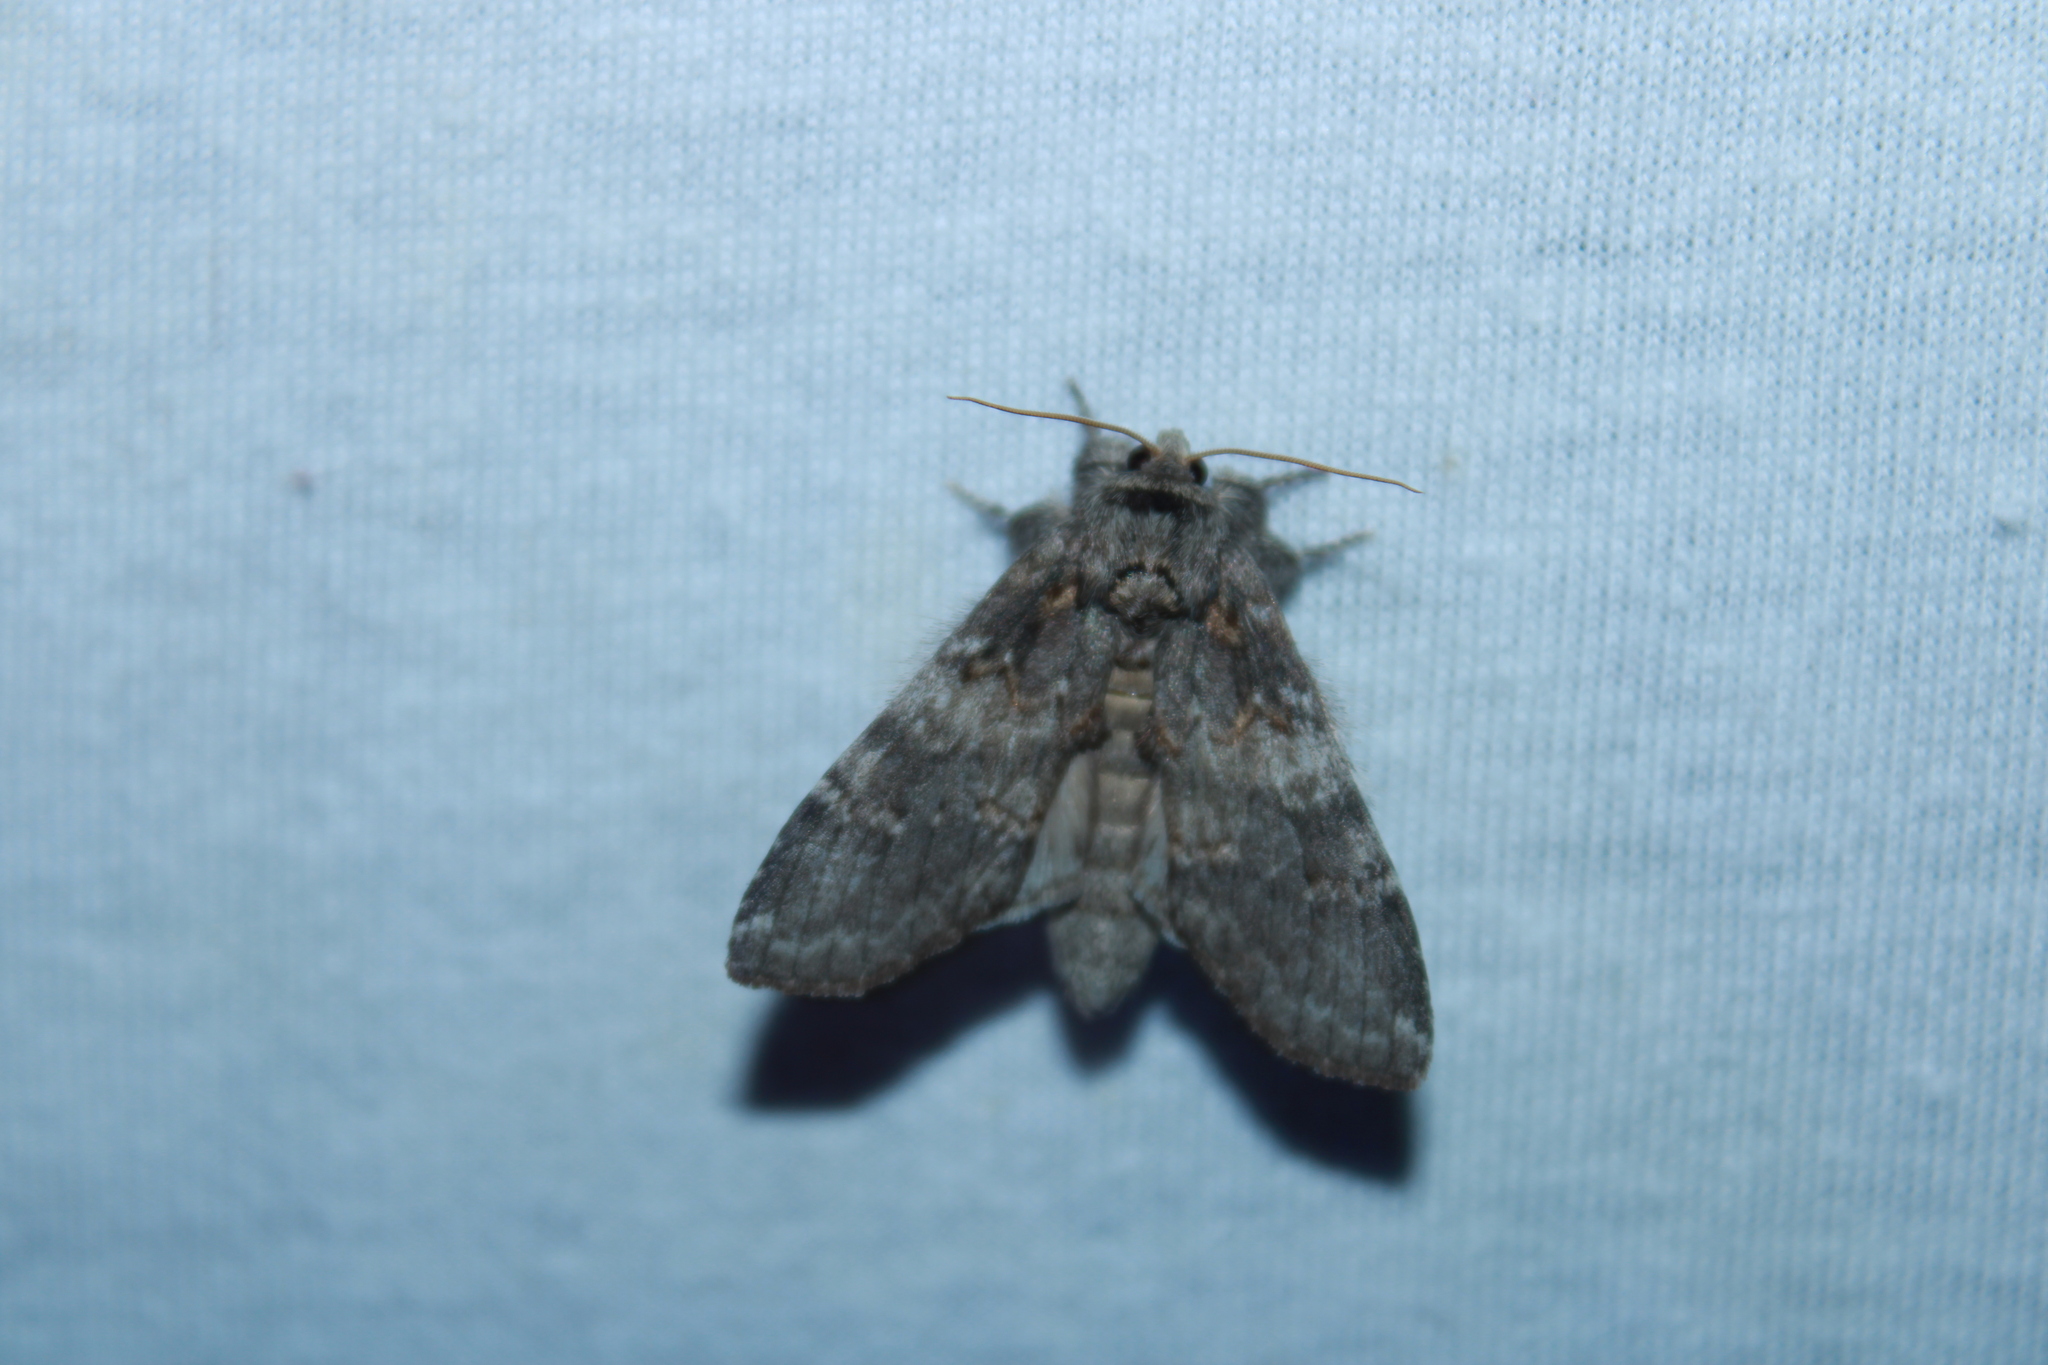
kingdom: Animalia
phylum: Arthropoda
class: Insecta
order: Lepidoptera
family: Notodontidae
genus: Peridea
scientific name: Peridea angulosa
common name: Angulose prominent
